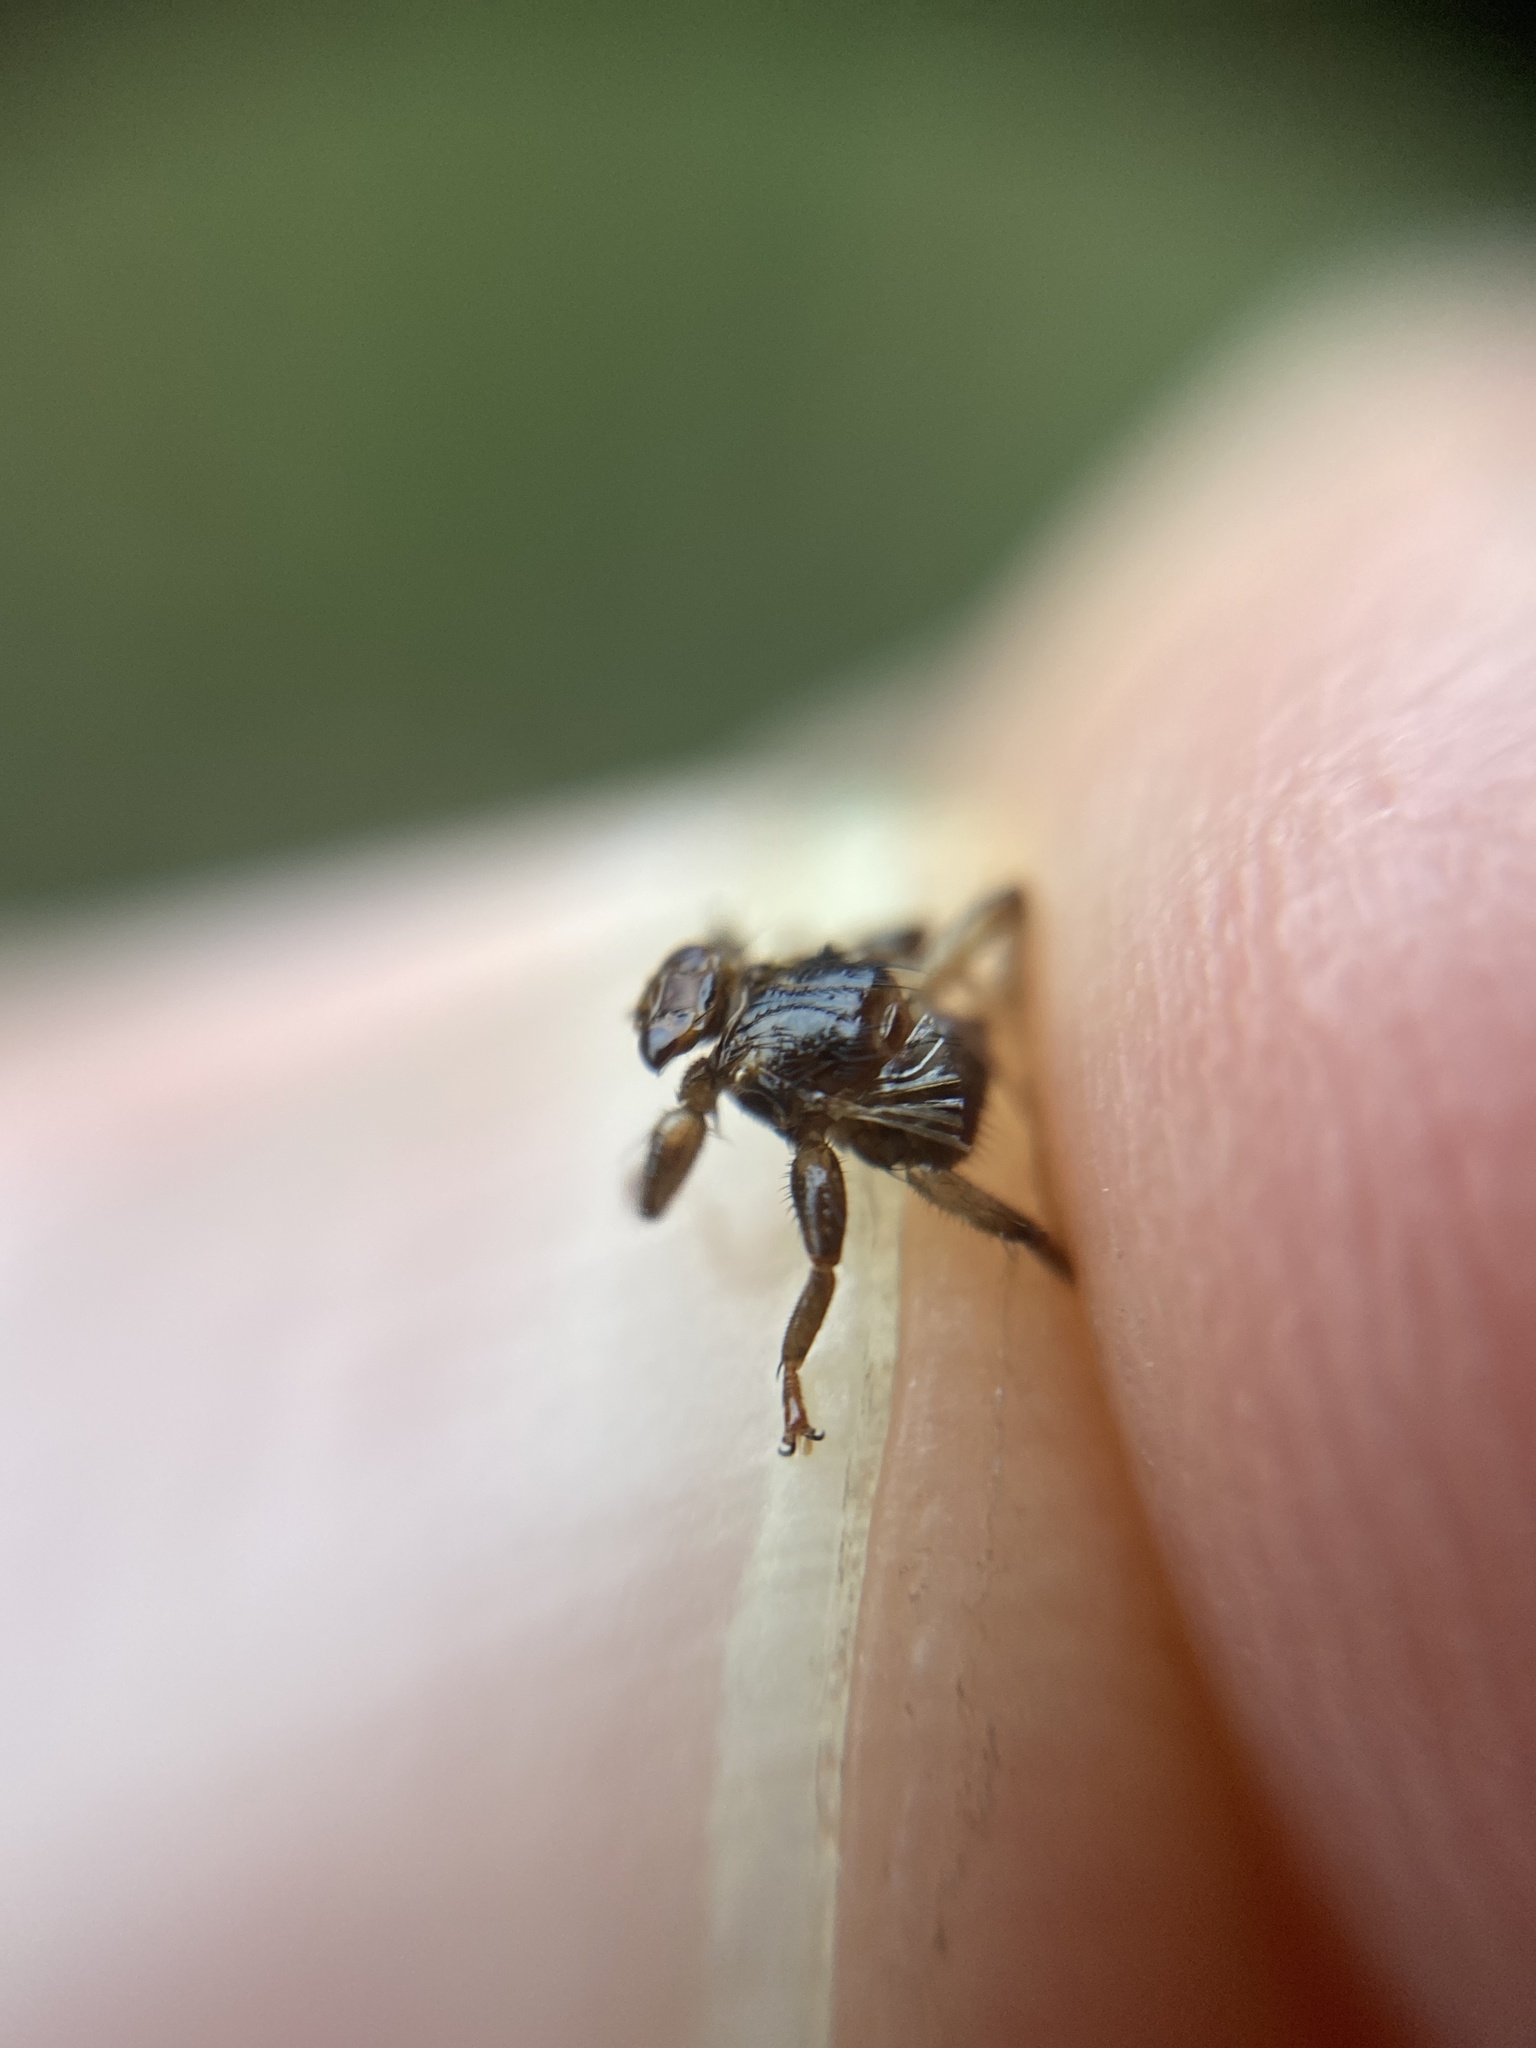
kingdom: Animalia
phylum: Arthropoda
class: Insecta
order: Diptera
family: Hippoboscidae
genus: Lipoptena
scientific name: Lipoptena cervi
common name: Deer ked
